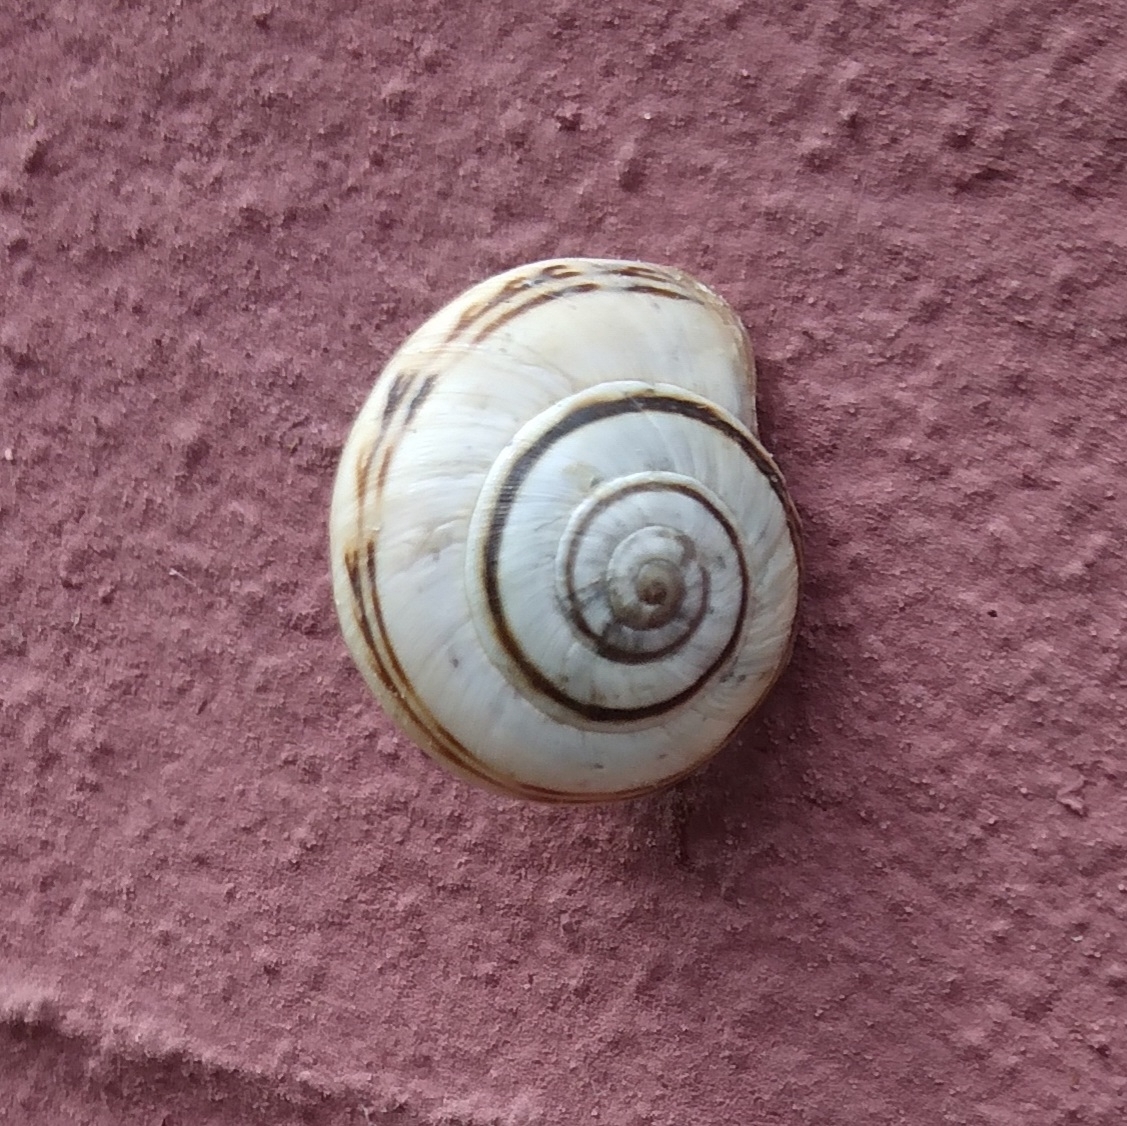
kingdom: Animalia
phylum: Mollusca
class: Gastropoda
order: Stylommatophora
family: Helicidae
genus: Theba
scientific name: Theba pisana
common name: White snail
